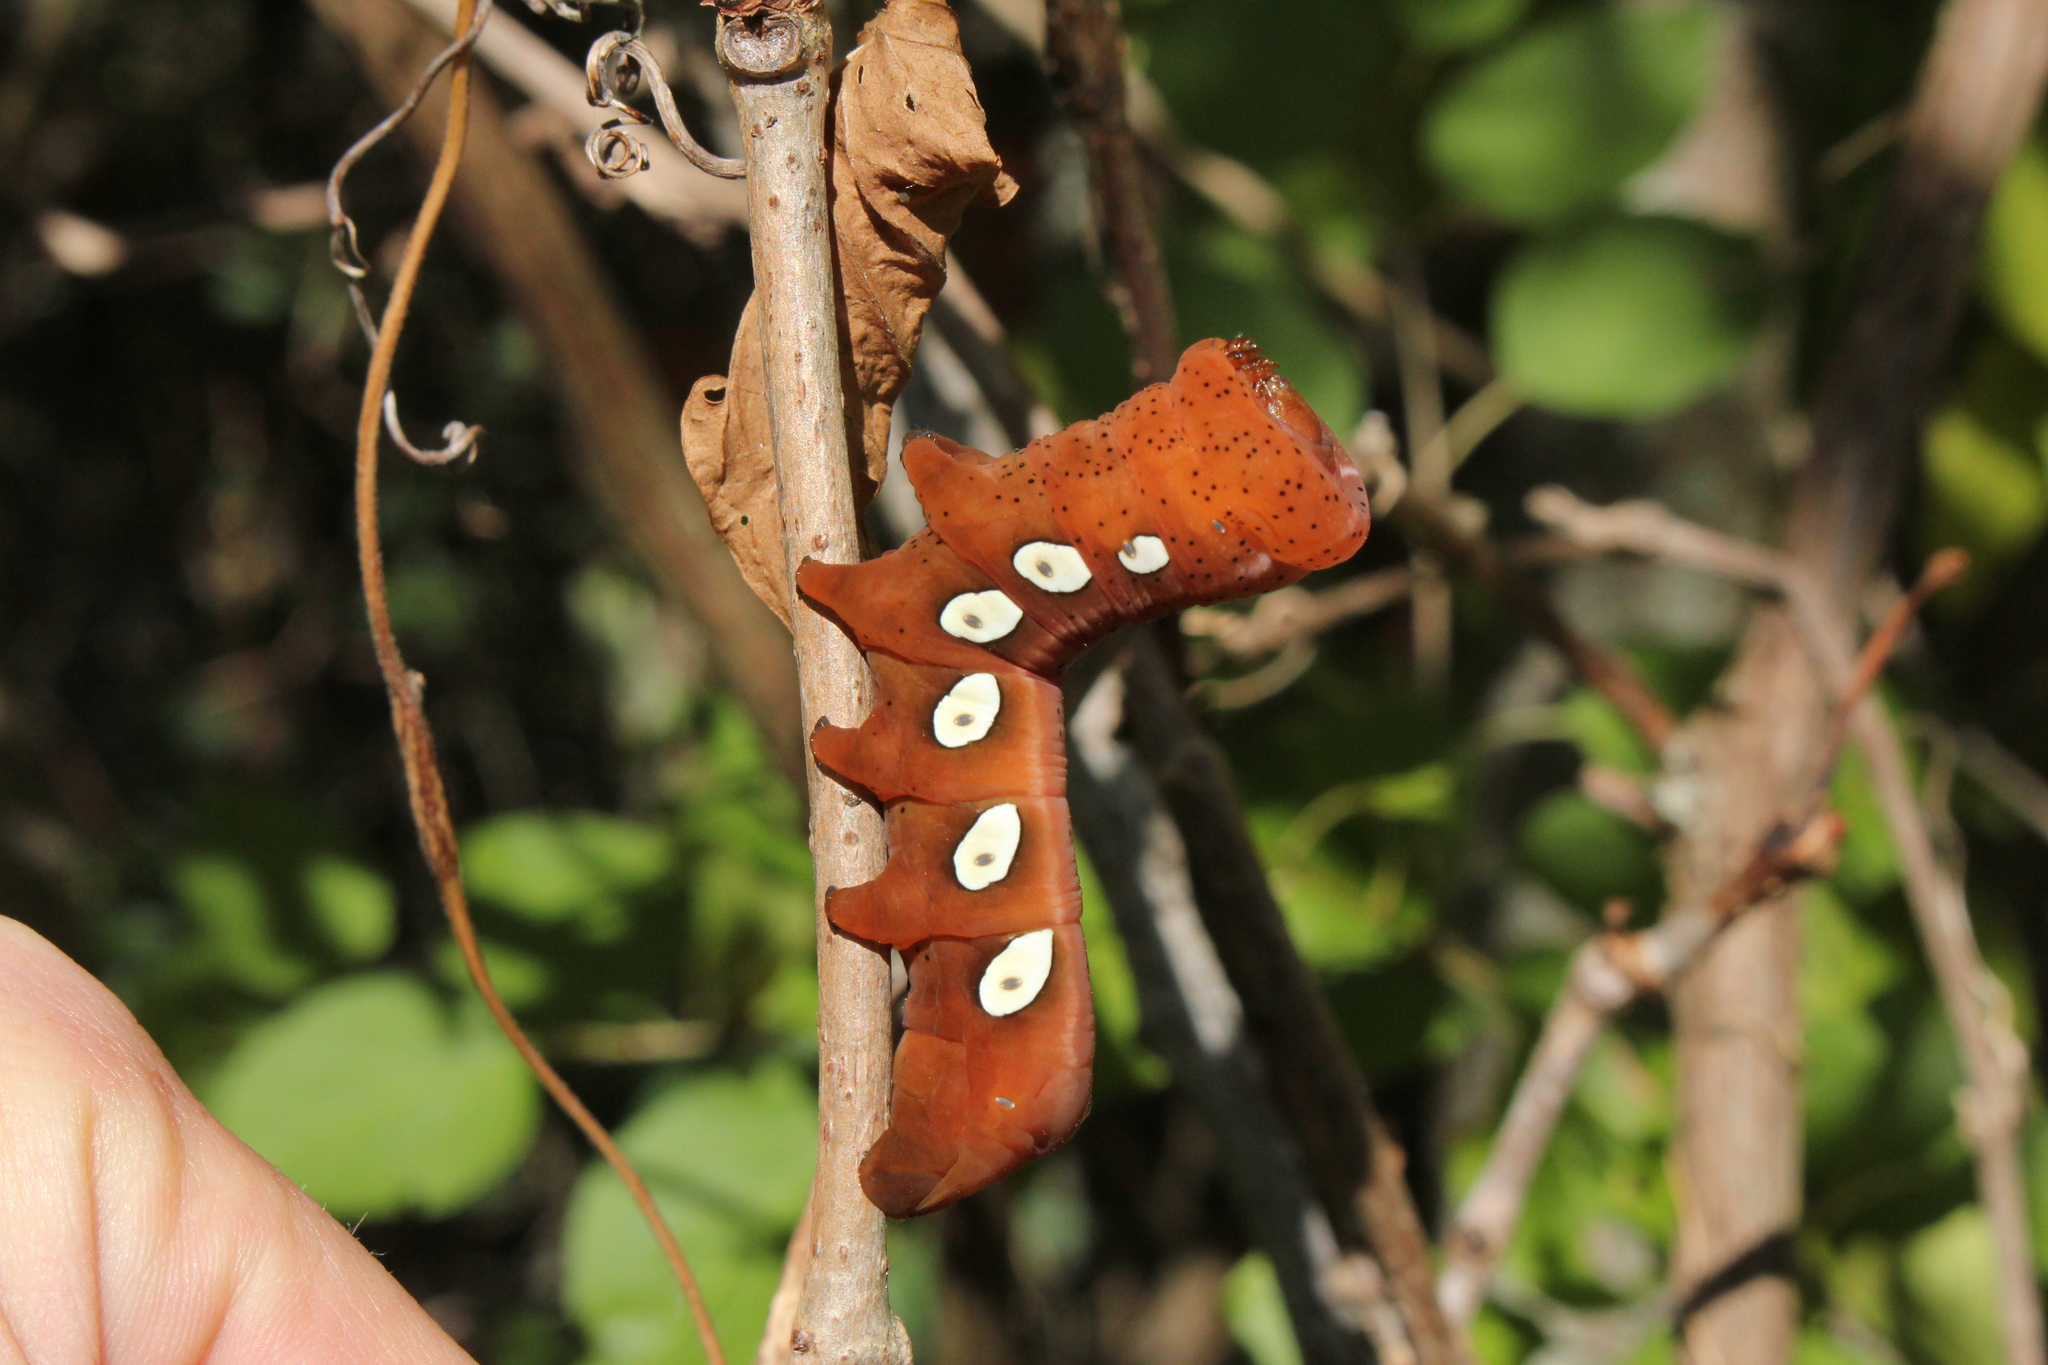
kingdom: Animalia
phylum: Arthropoda
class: Insecta
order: Lepidoptera
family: Sphingidae
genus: Eumorpha
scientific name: Eumorpha pandorus
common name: Pandora sphinx
